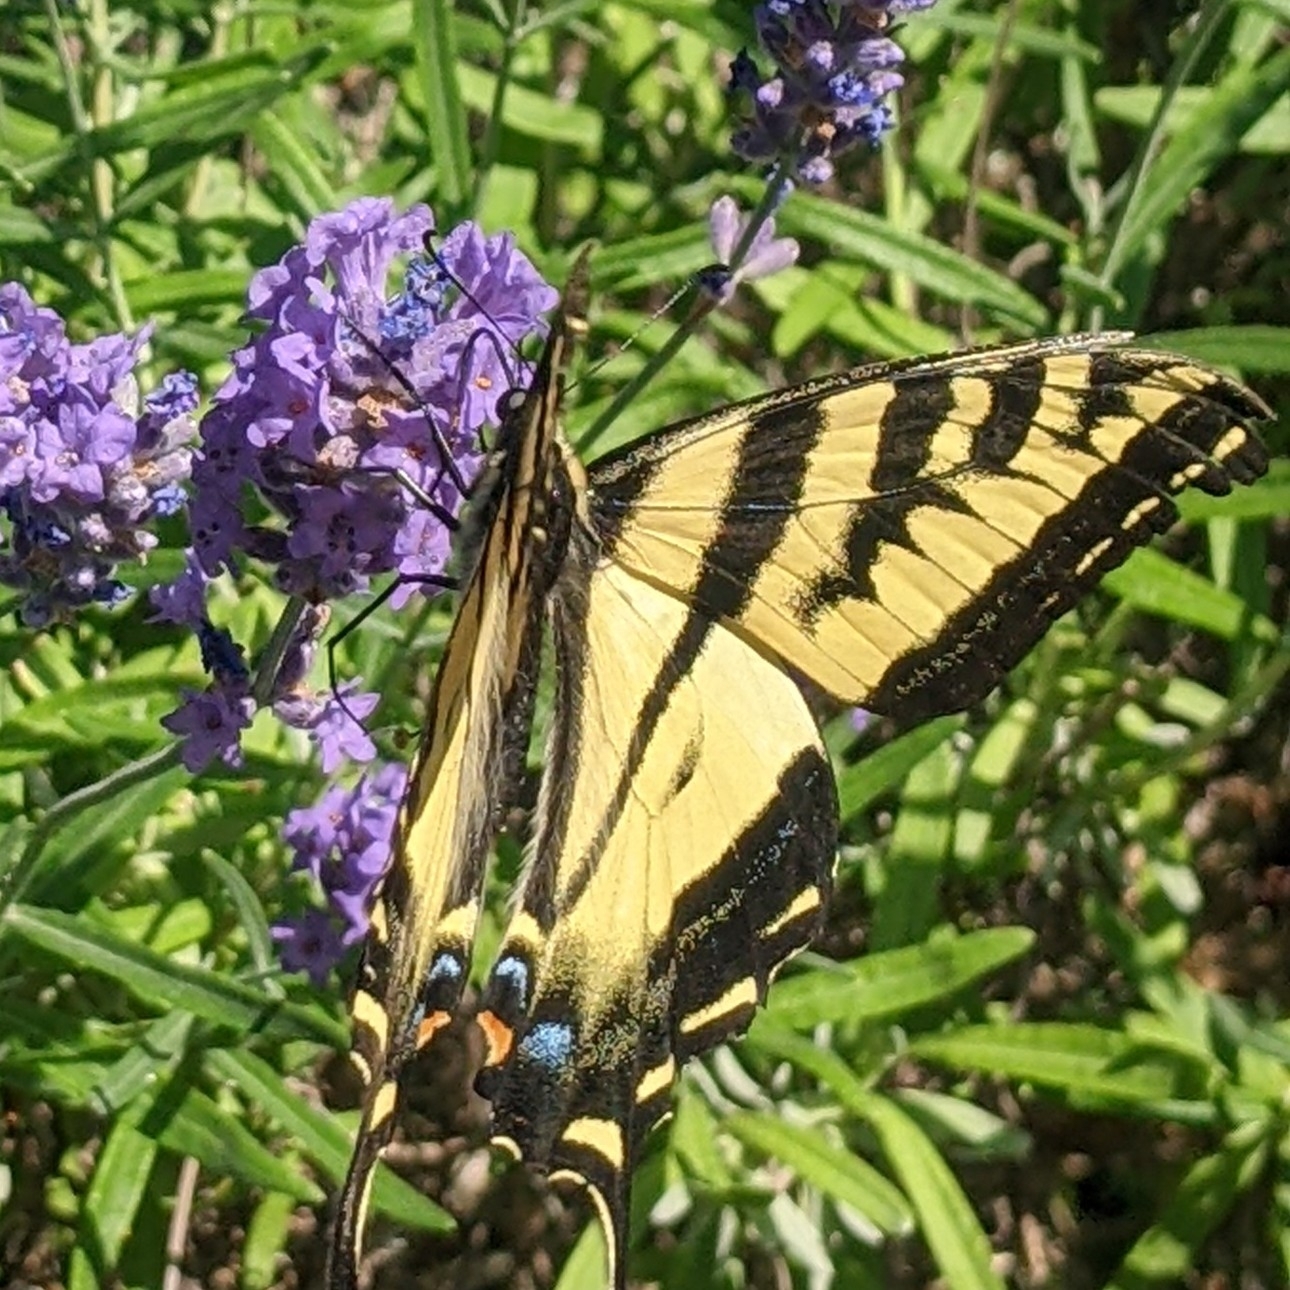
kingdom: Animalia
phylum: Arthropoda
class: Insecta
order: Lepidoptera
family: Papilionidae
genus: Papilio
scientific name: Papilio rutulus
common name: Western tiger swallowtail
